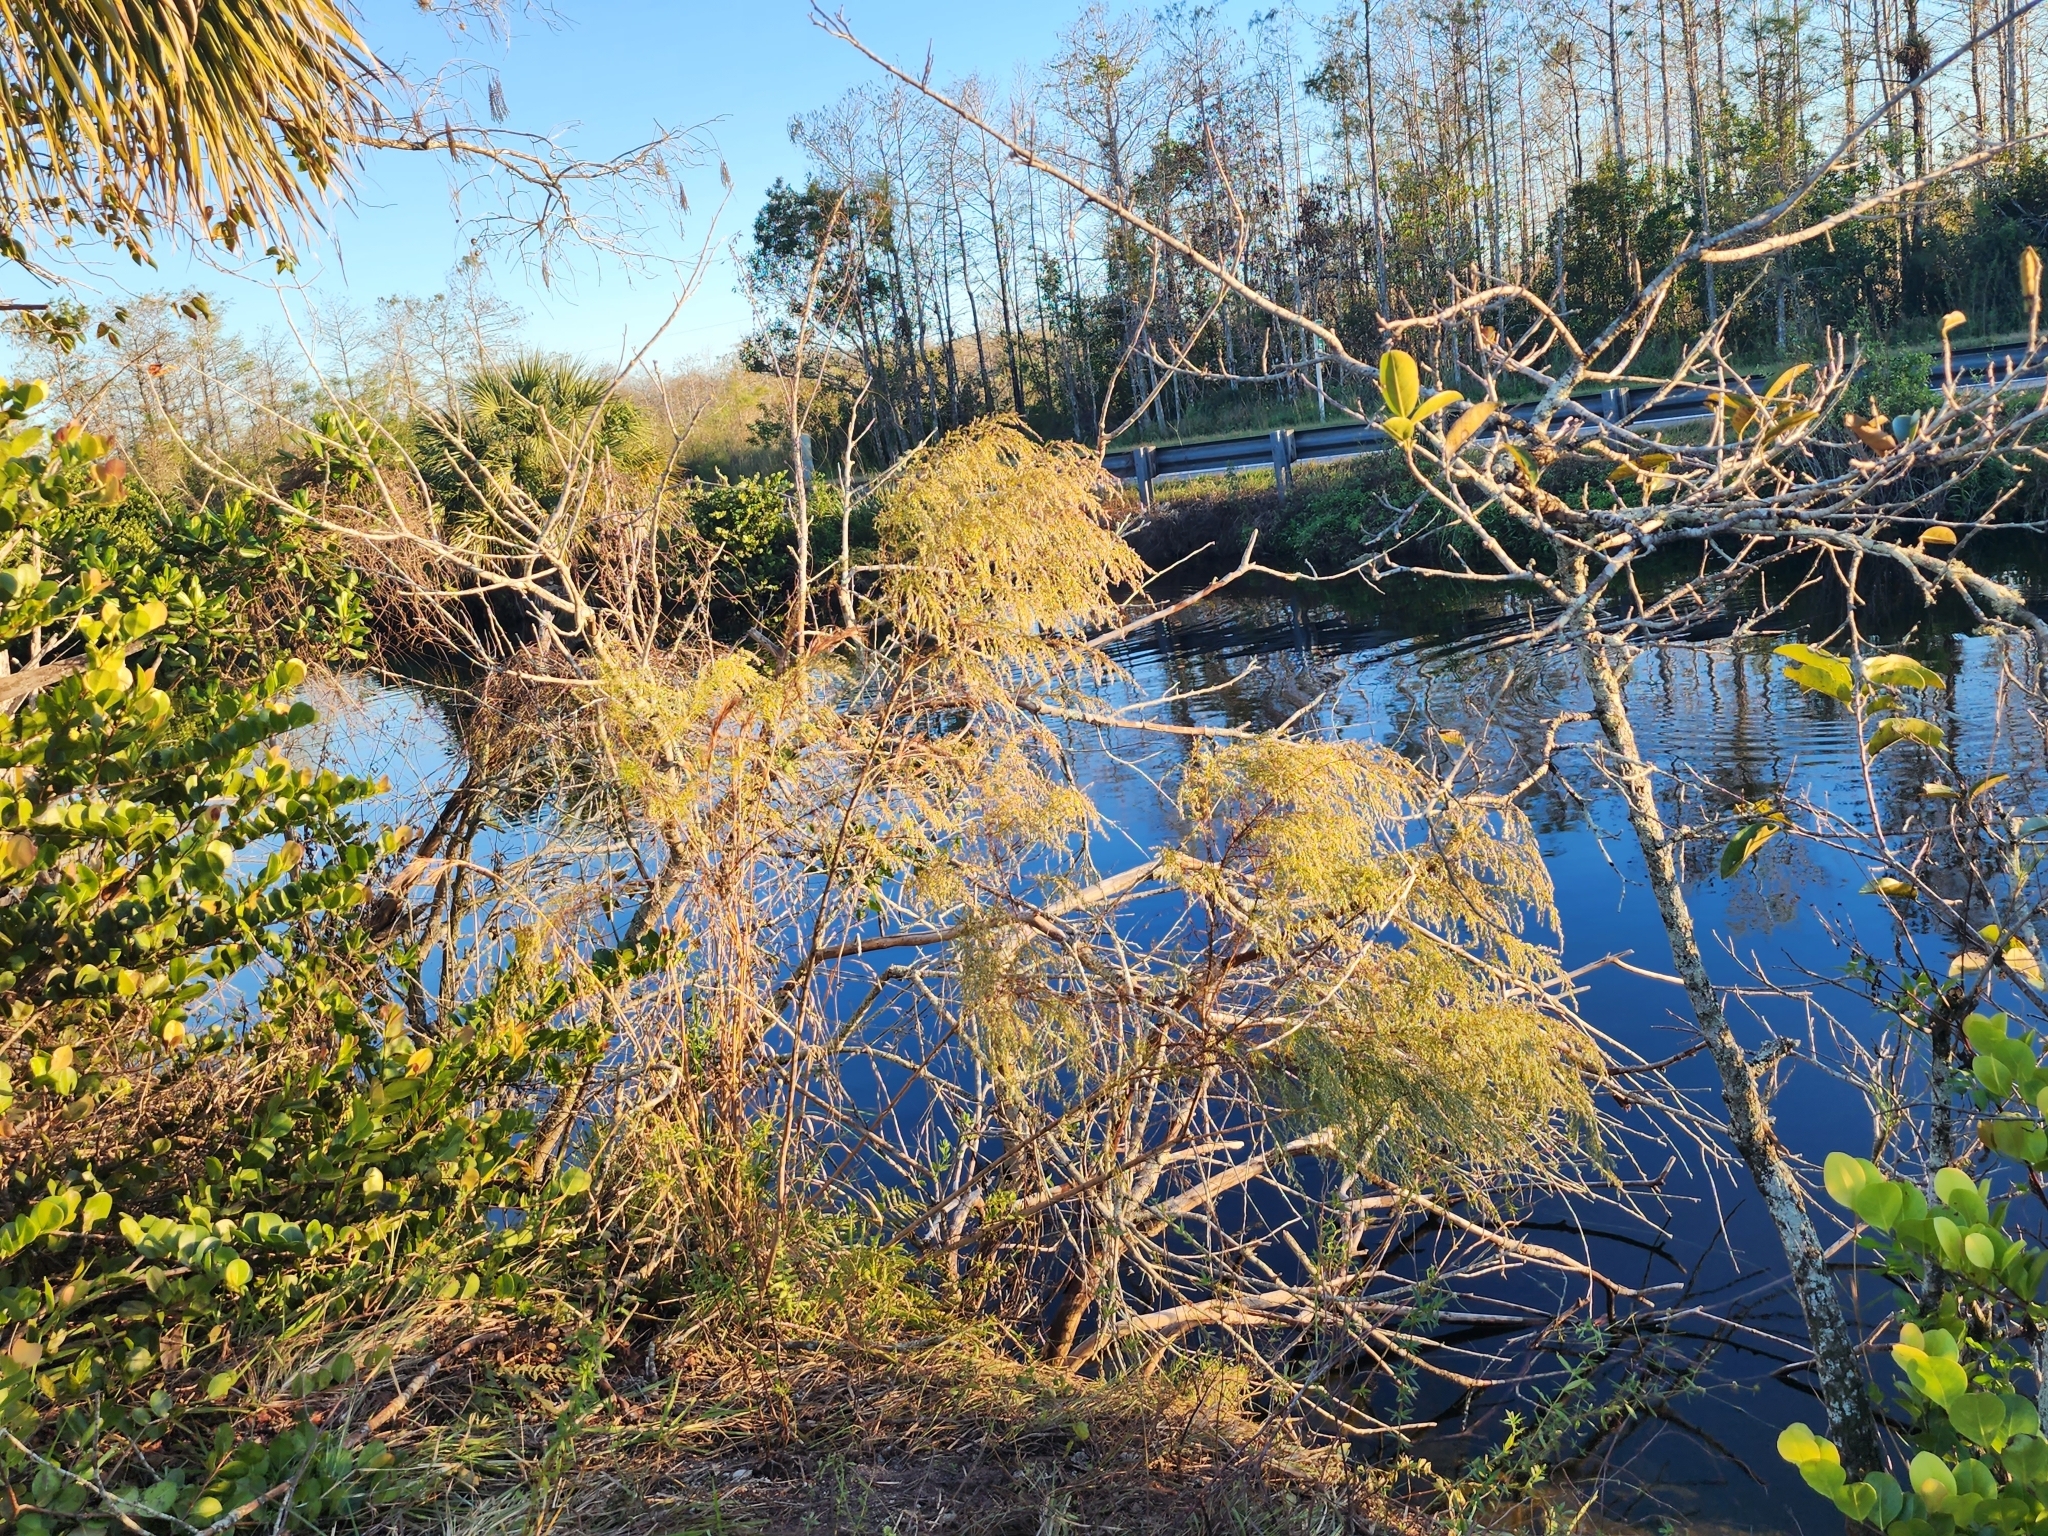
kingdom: Plantae
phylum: Tracheophyta
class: Magnoliopsida
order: Asterales
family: Asteraceae
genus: Eupatorium
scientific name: Eupatorium capillifolium
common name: Dog-fennel
